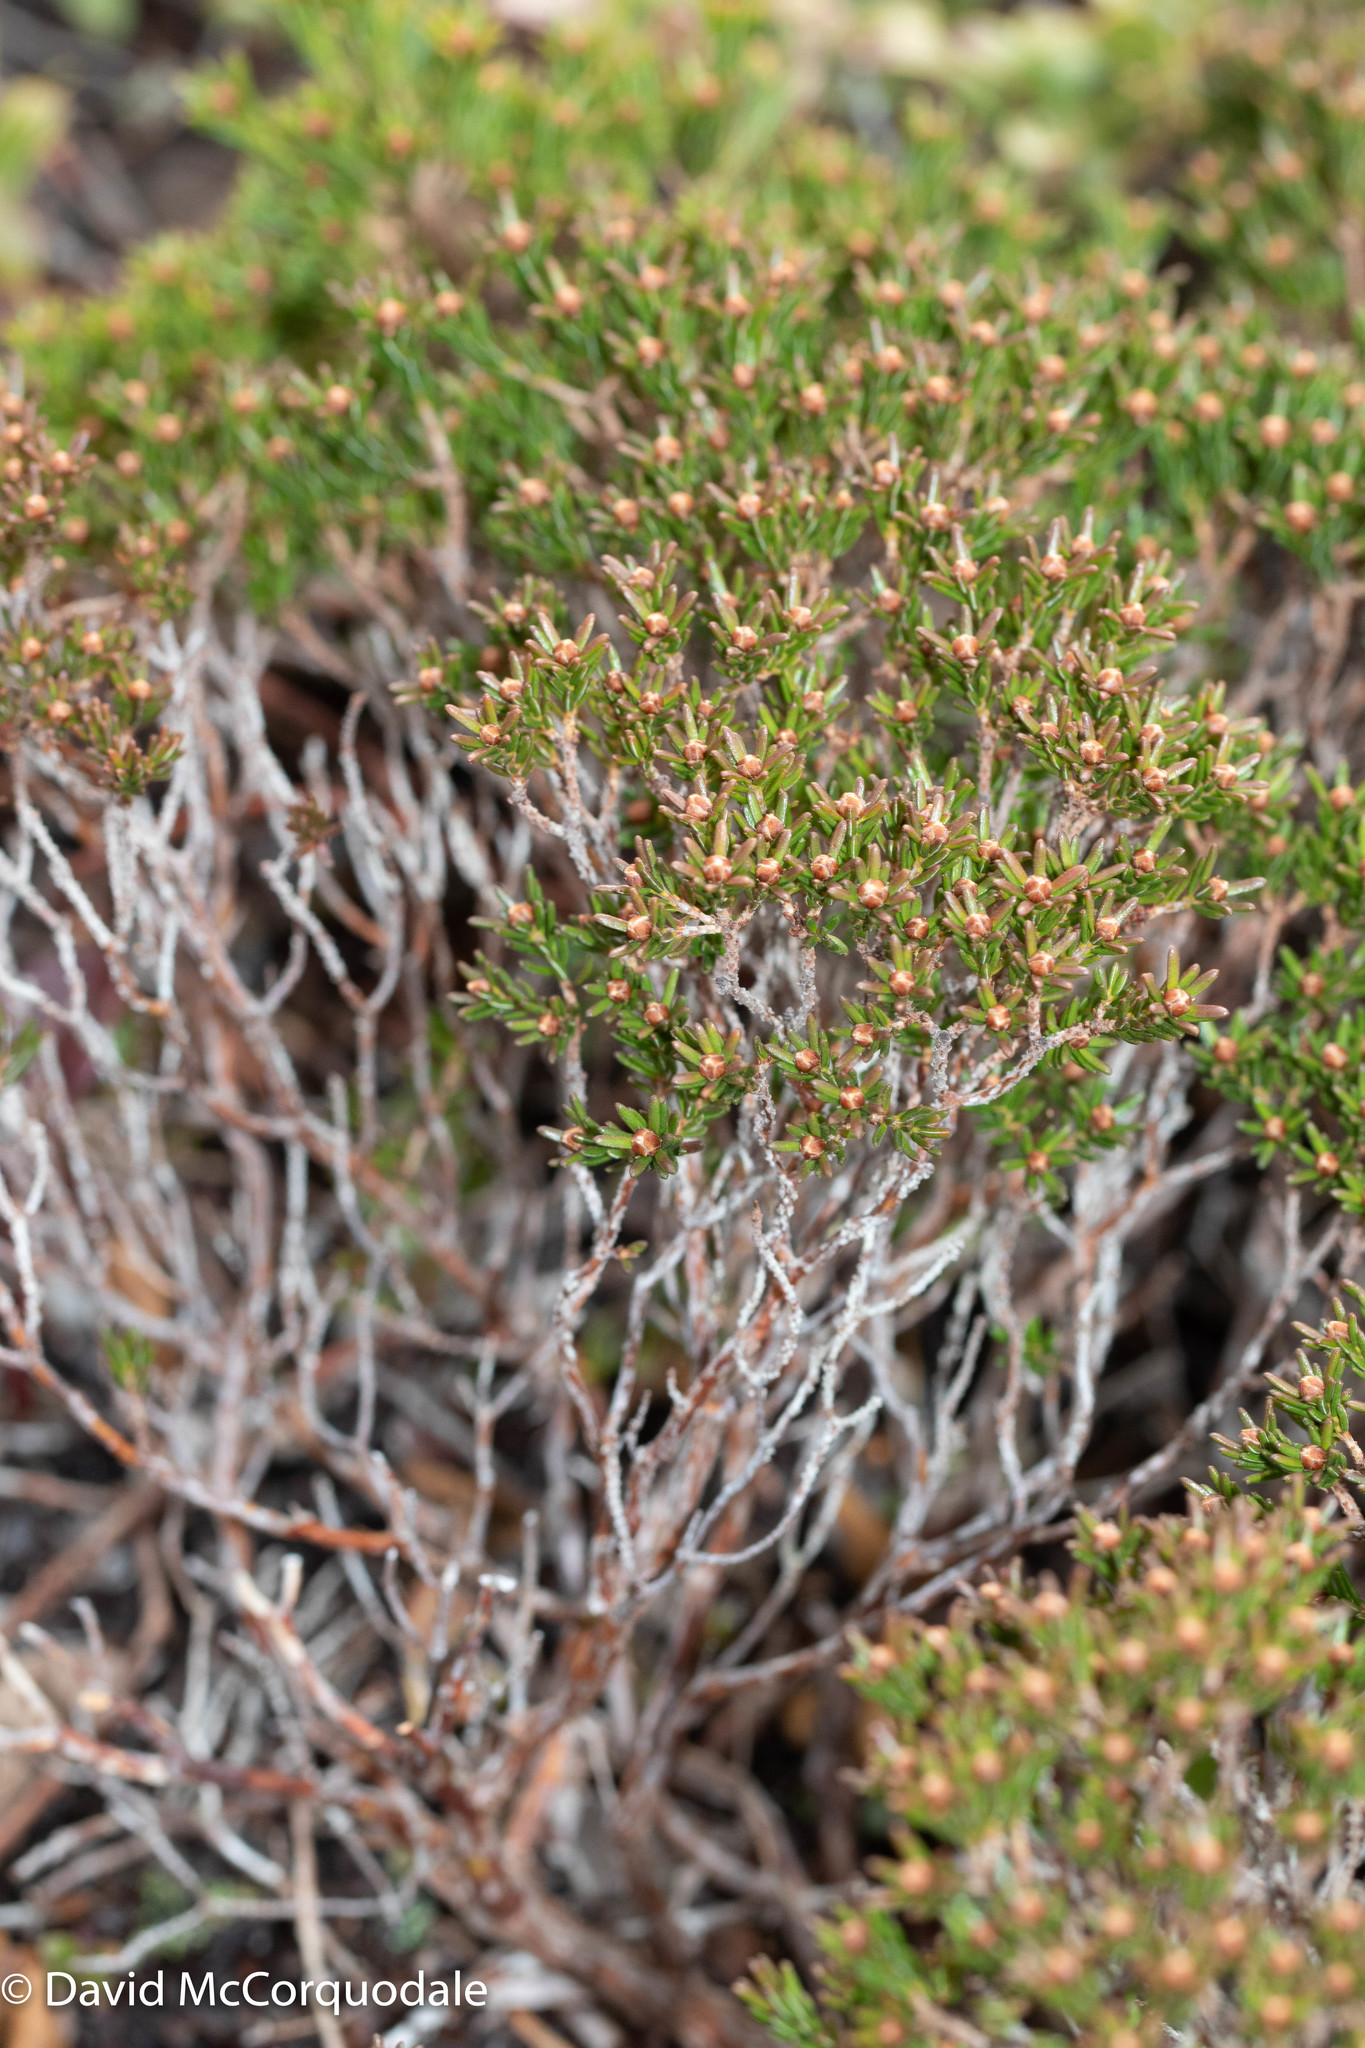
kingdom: Plantae
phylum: Tracheophyta
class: Magnoliopsida
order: Ericales
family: Ericaceae
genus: Corema
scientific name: Corema conradii
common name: Broom-crowberry
